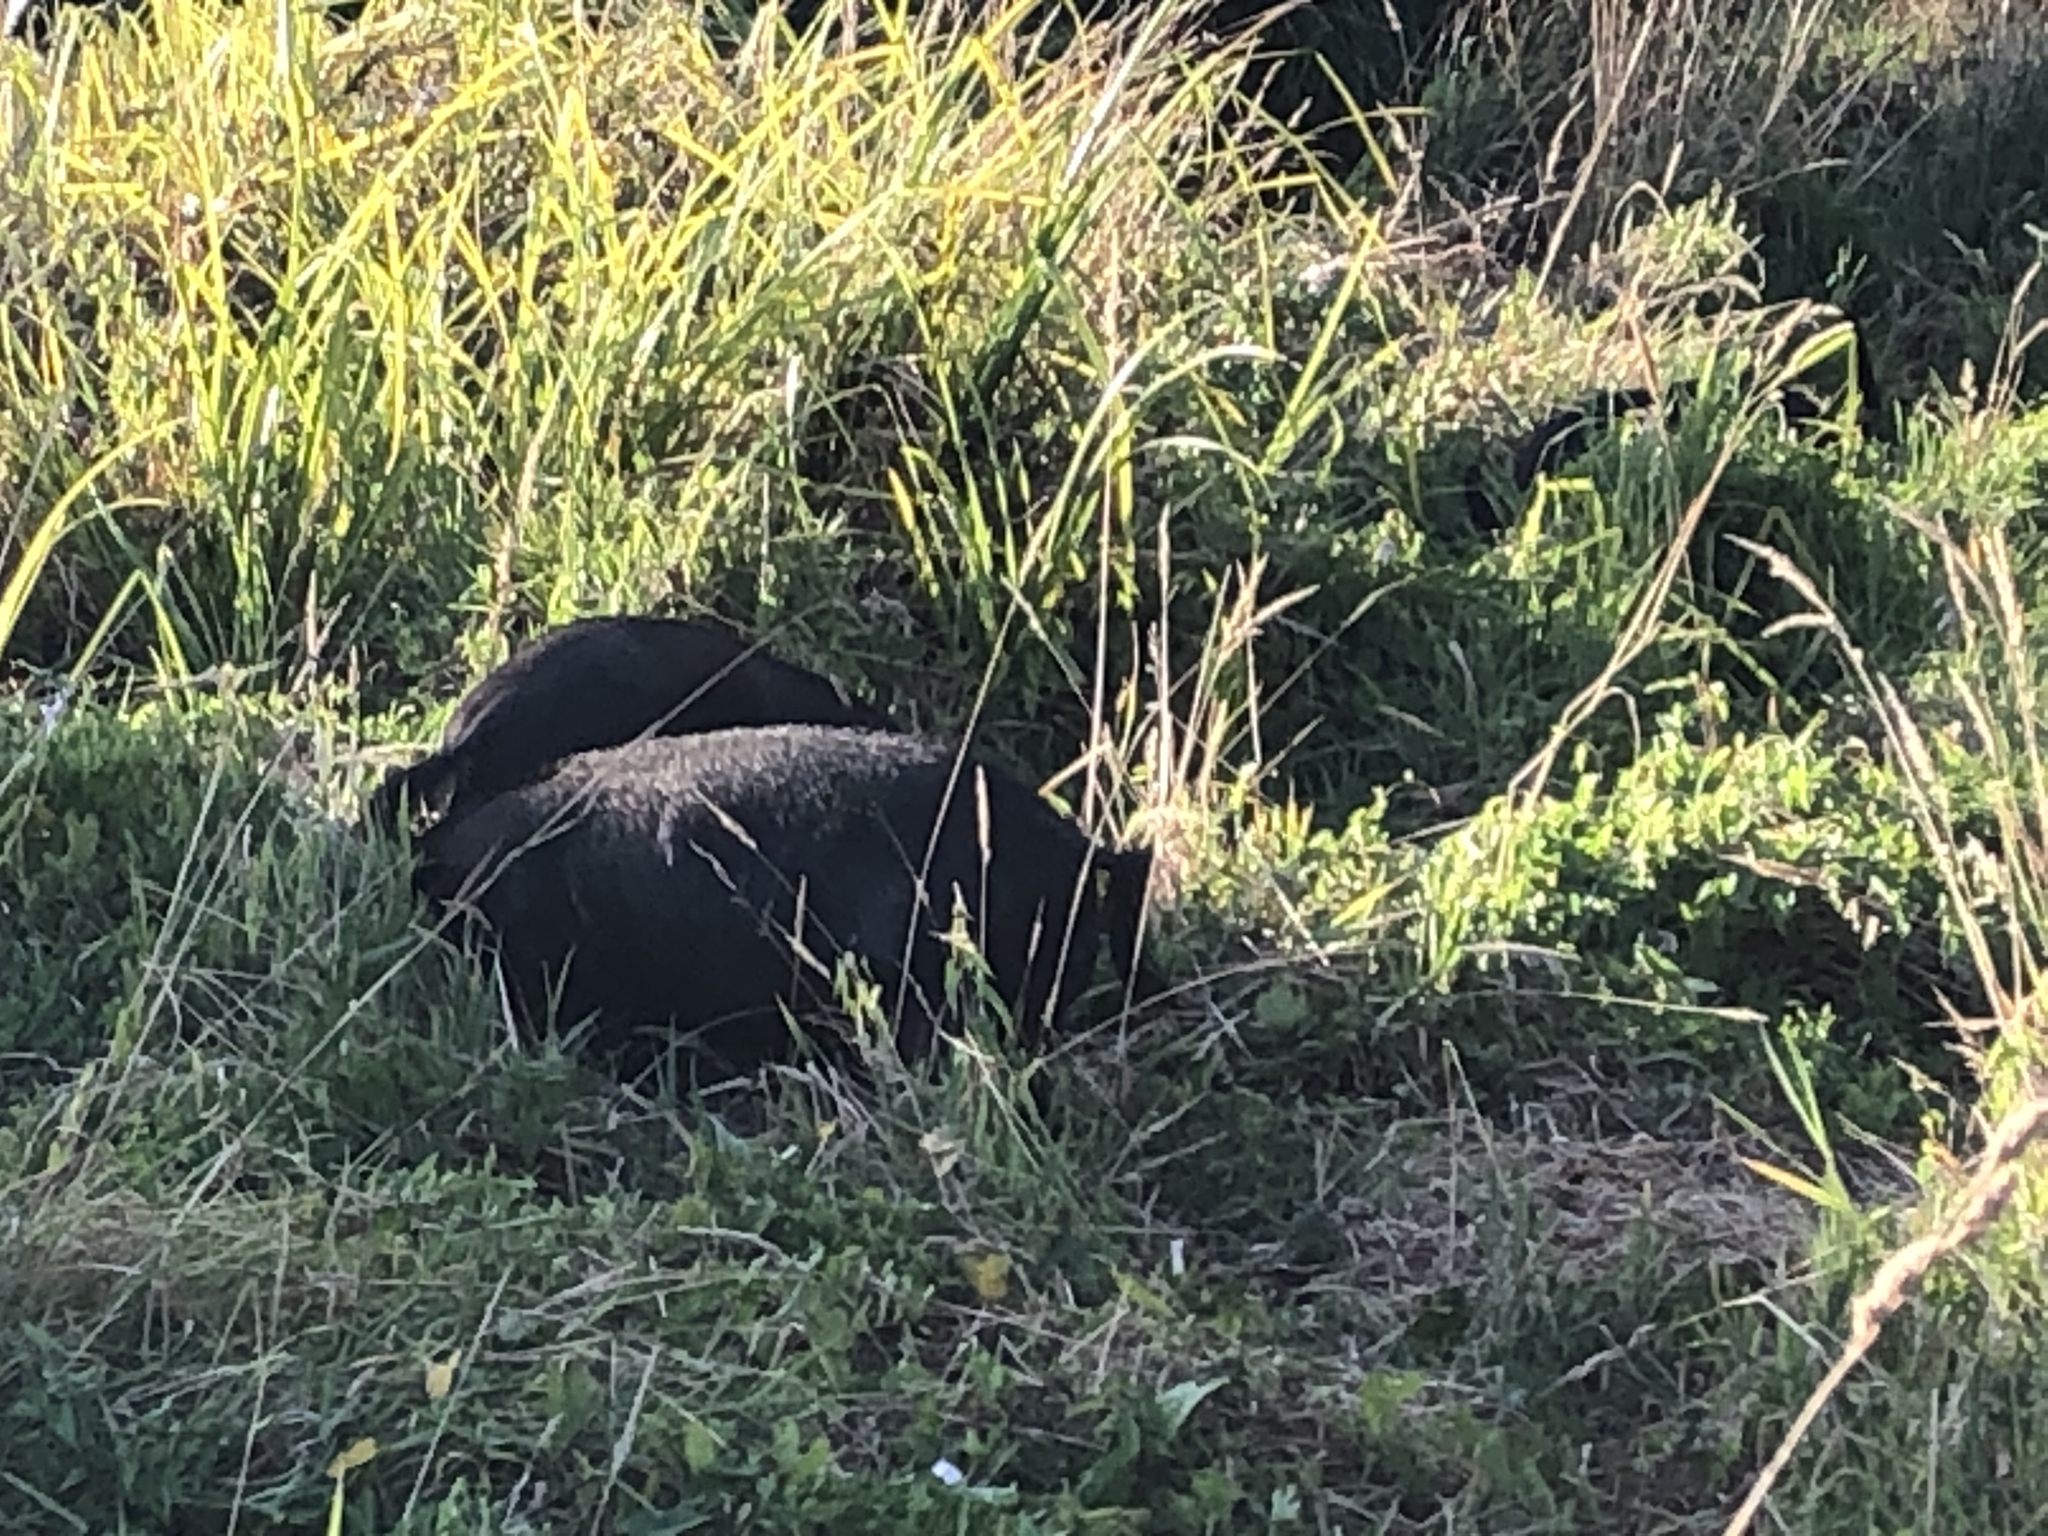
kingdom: Animalia
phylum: Chordata
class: Mammalia
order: Artiodactyla
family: Suidae
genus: Sus
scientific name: Sus scrofa
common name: Wild boar
